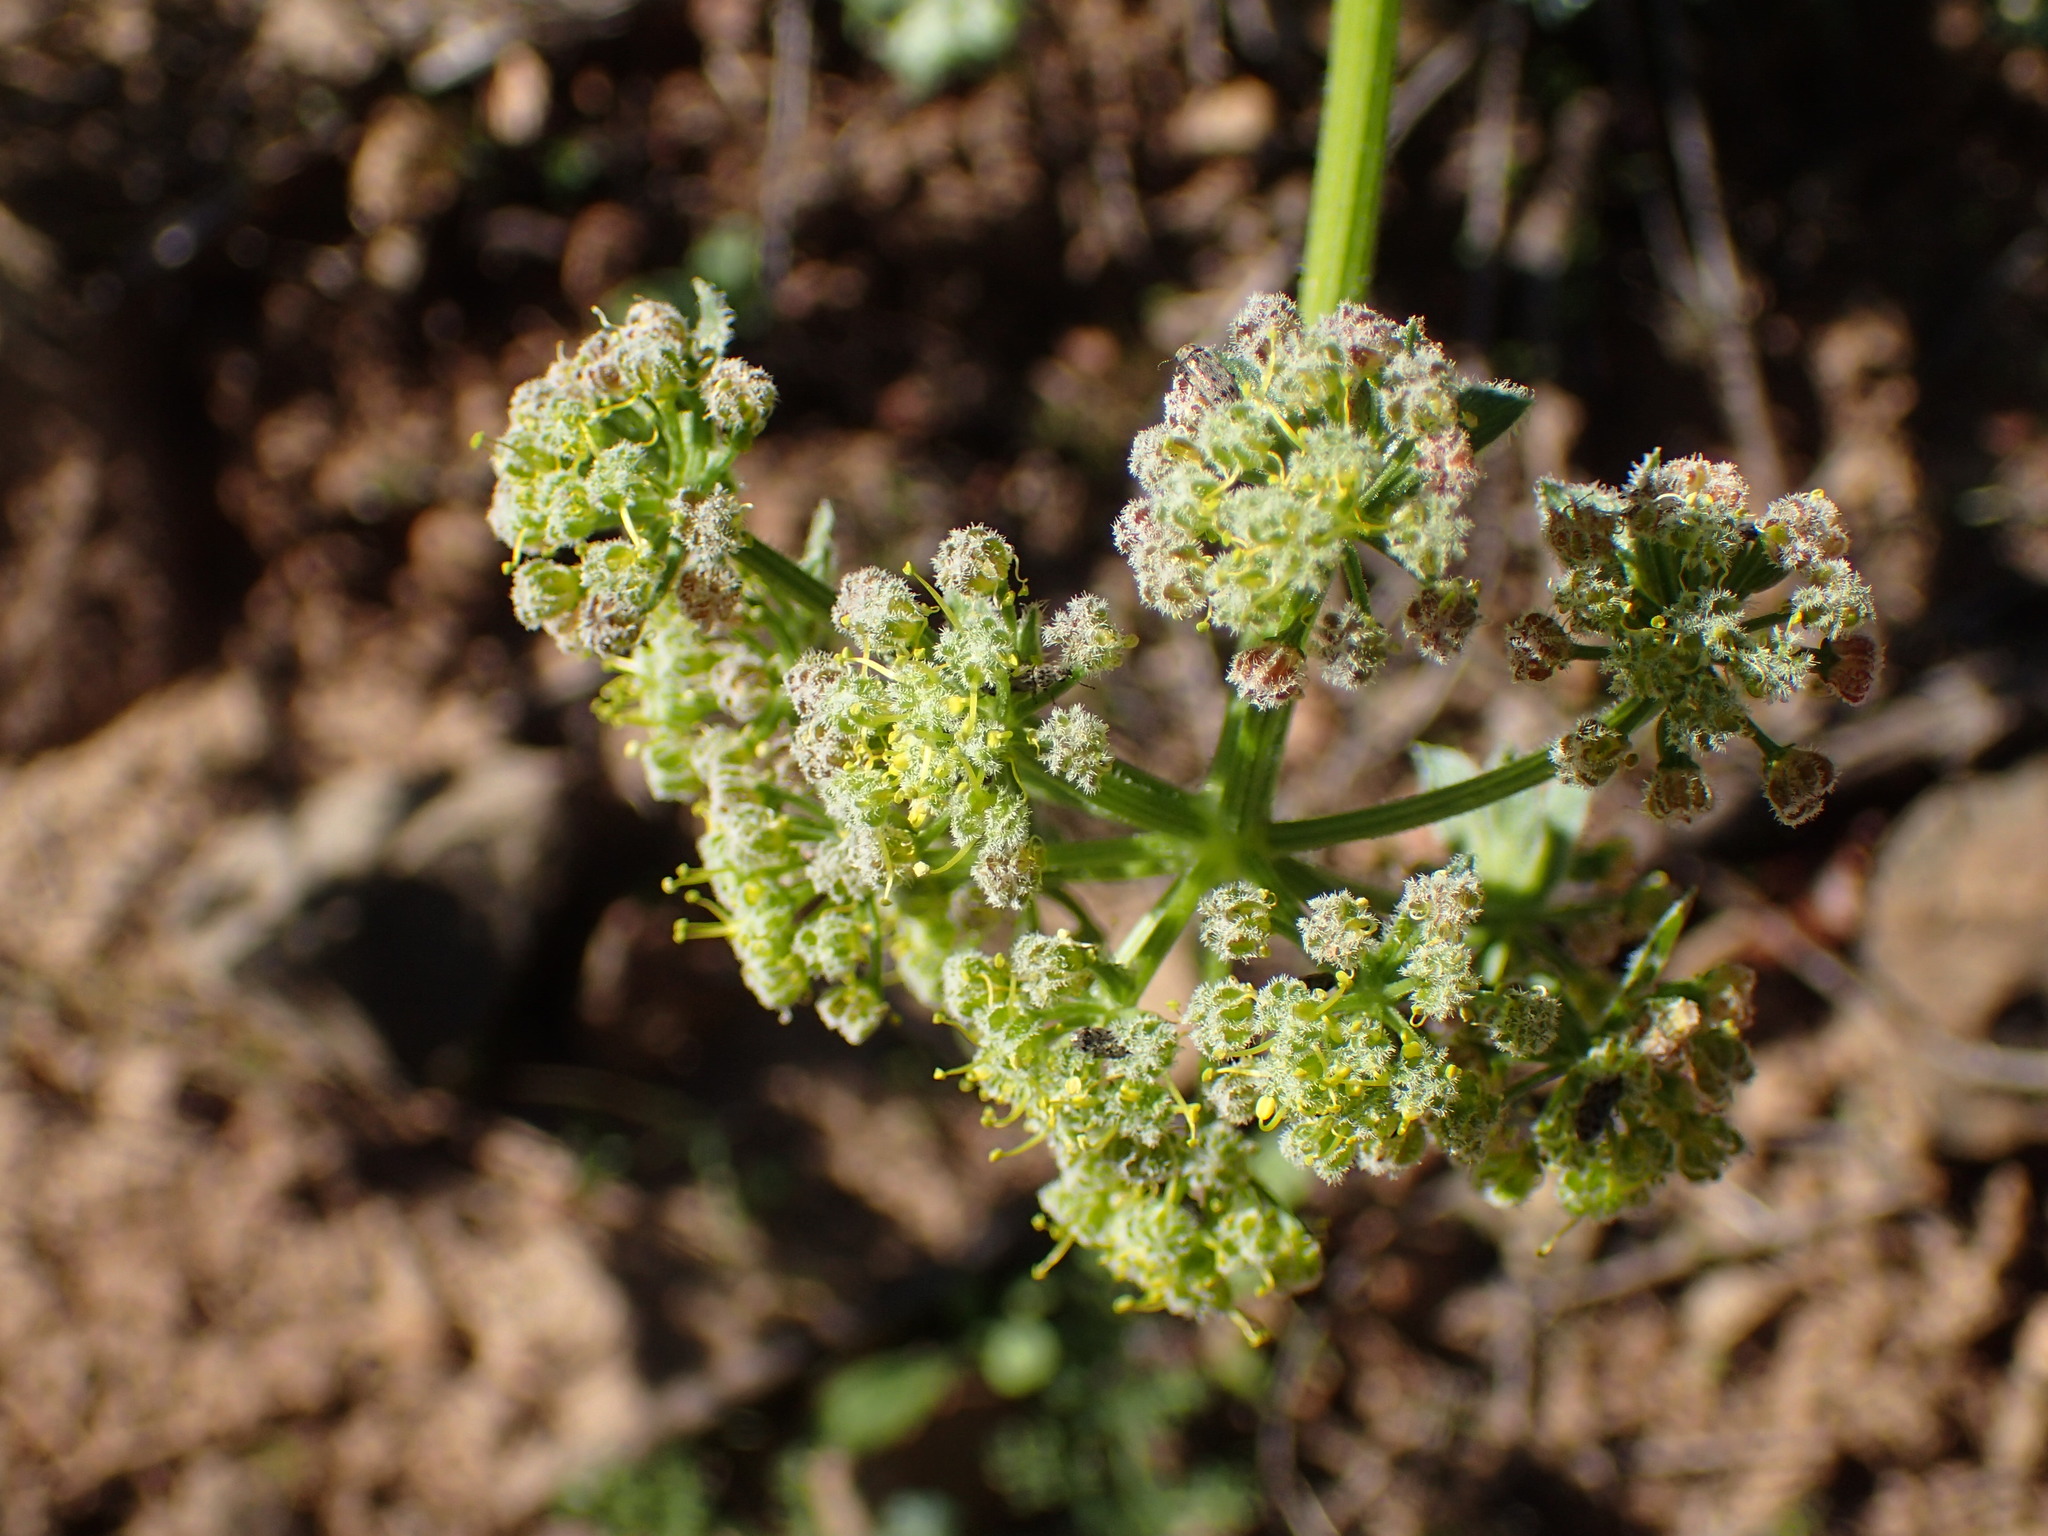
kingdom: Plantae
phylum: Tracheophyta
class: Magnoliopsida
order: Apiales
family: Apiaceae
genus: Lomatium
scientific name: Lomatium dasycarpum
